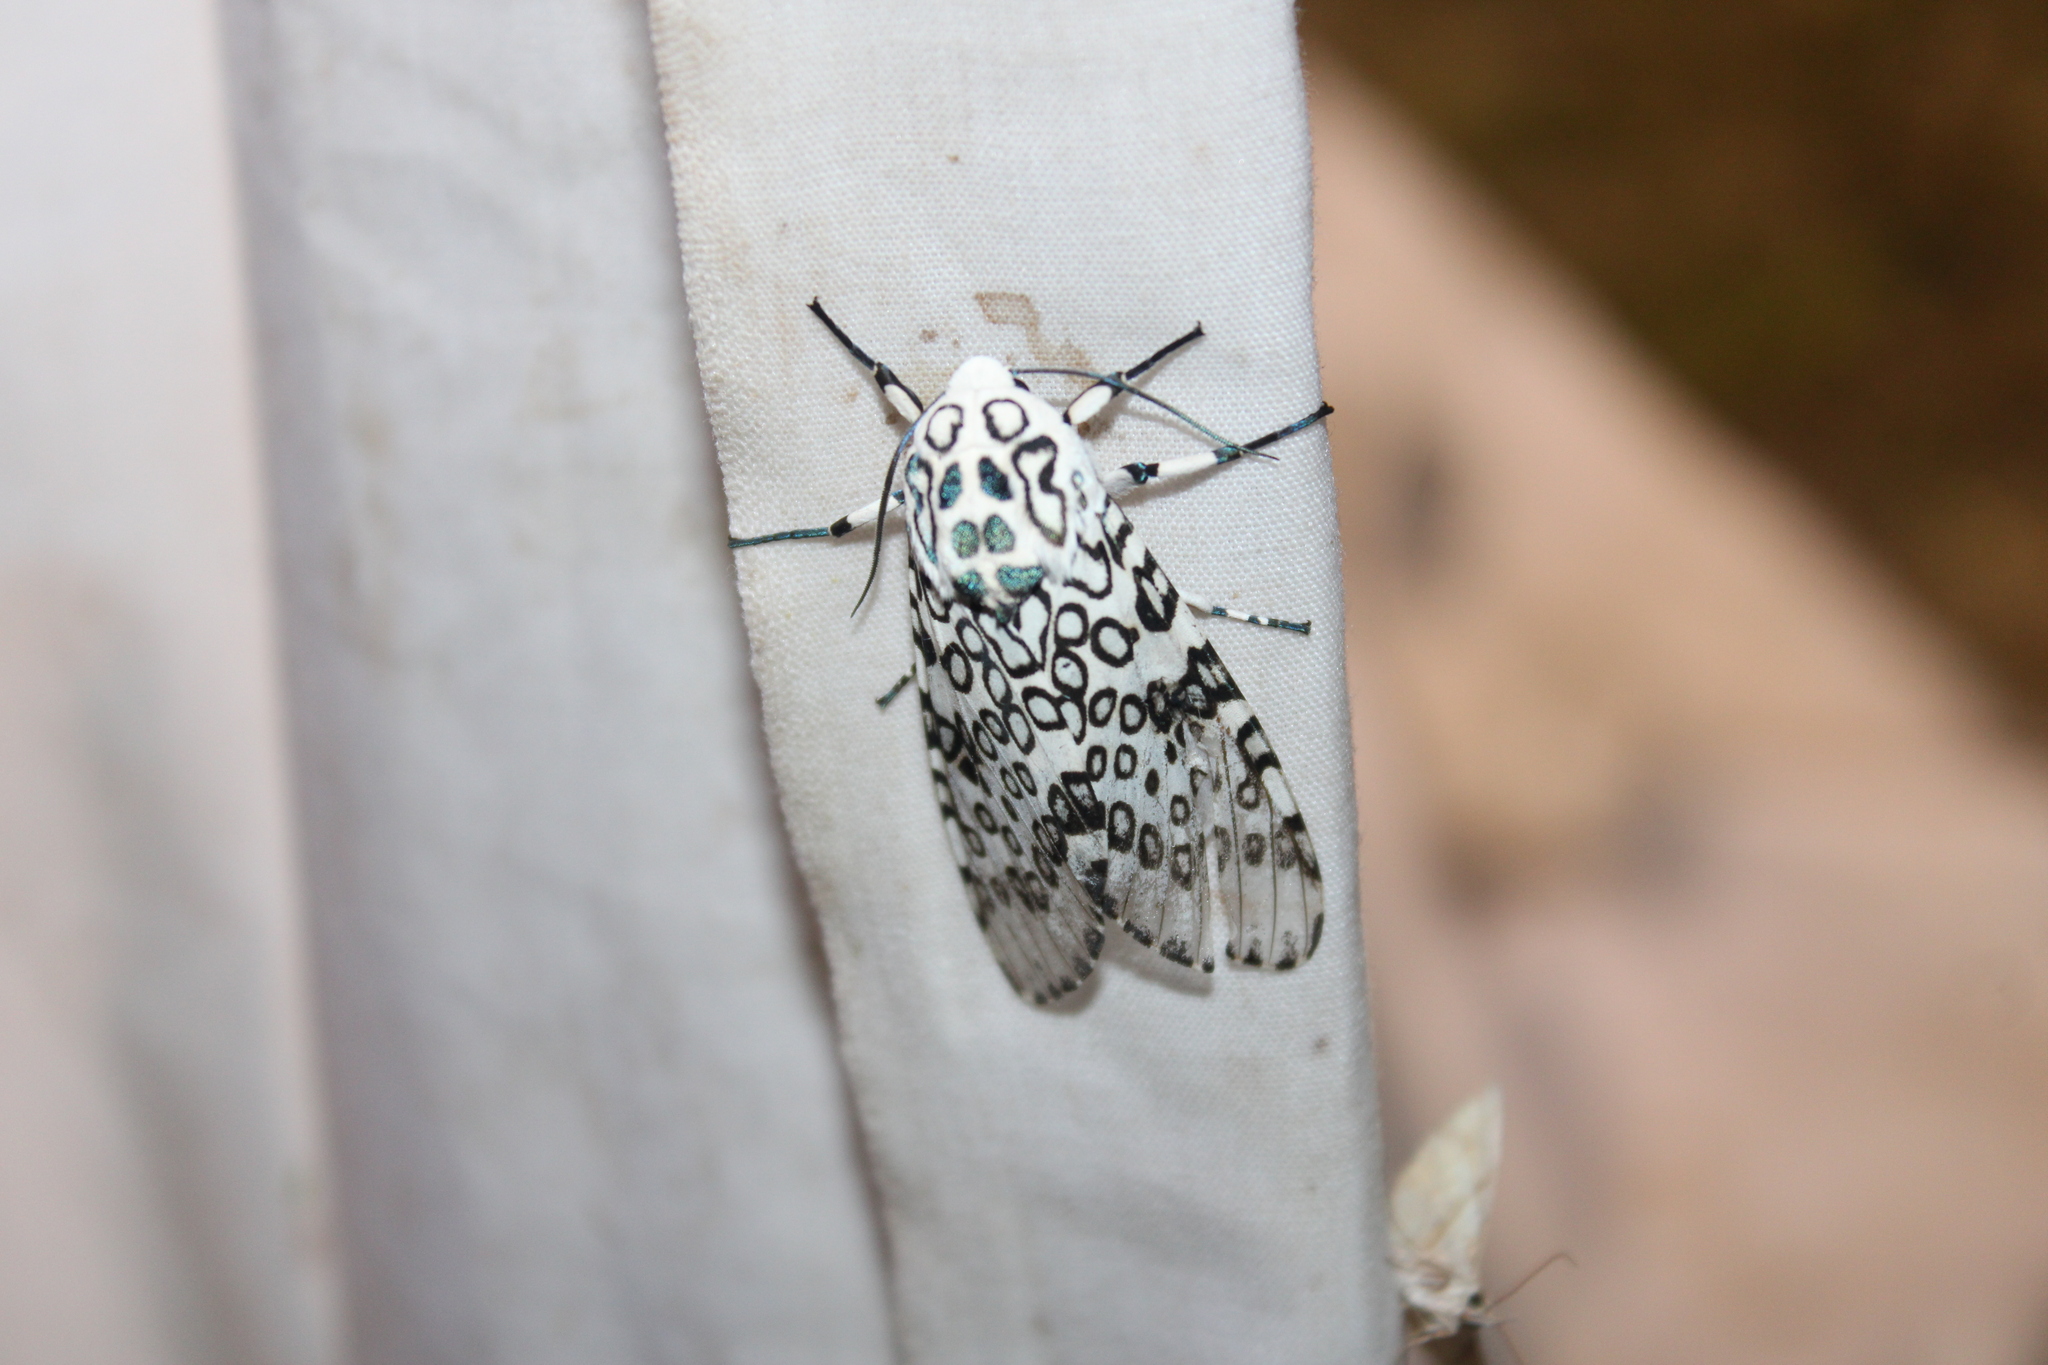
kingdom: Animalia
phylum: Arthropoda
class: Insecta
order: Lepidoptera
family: Erebidae
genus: Hypercompe
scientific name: Hypercompe scribonia
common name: Giant leopard moth
